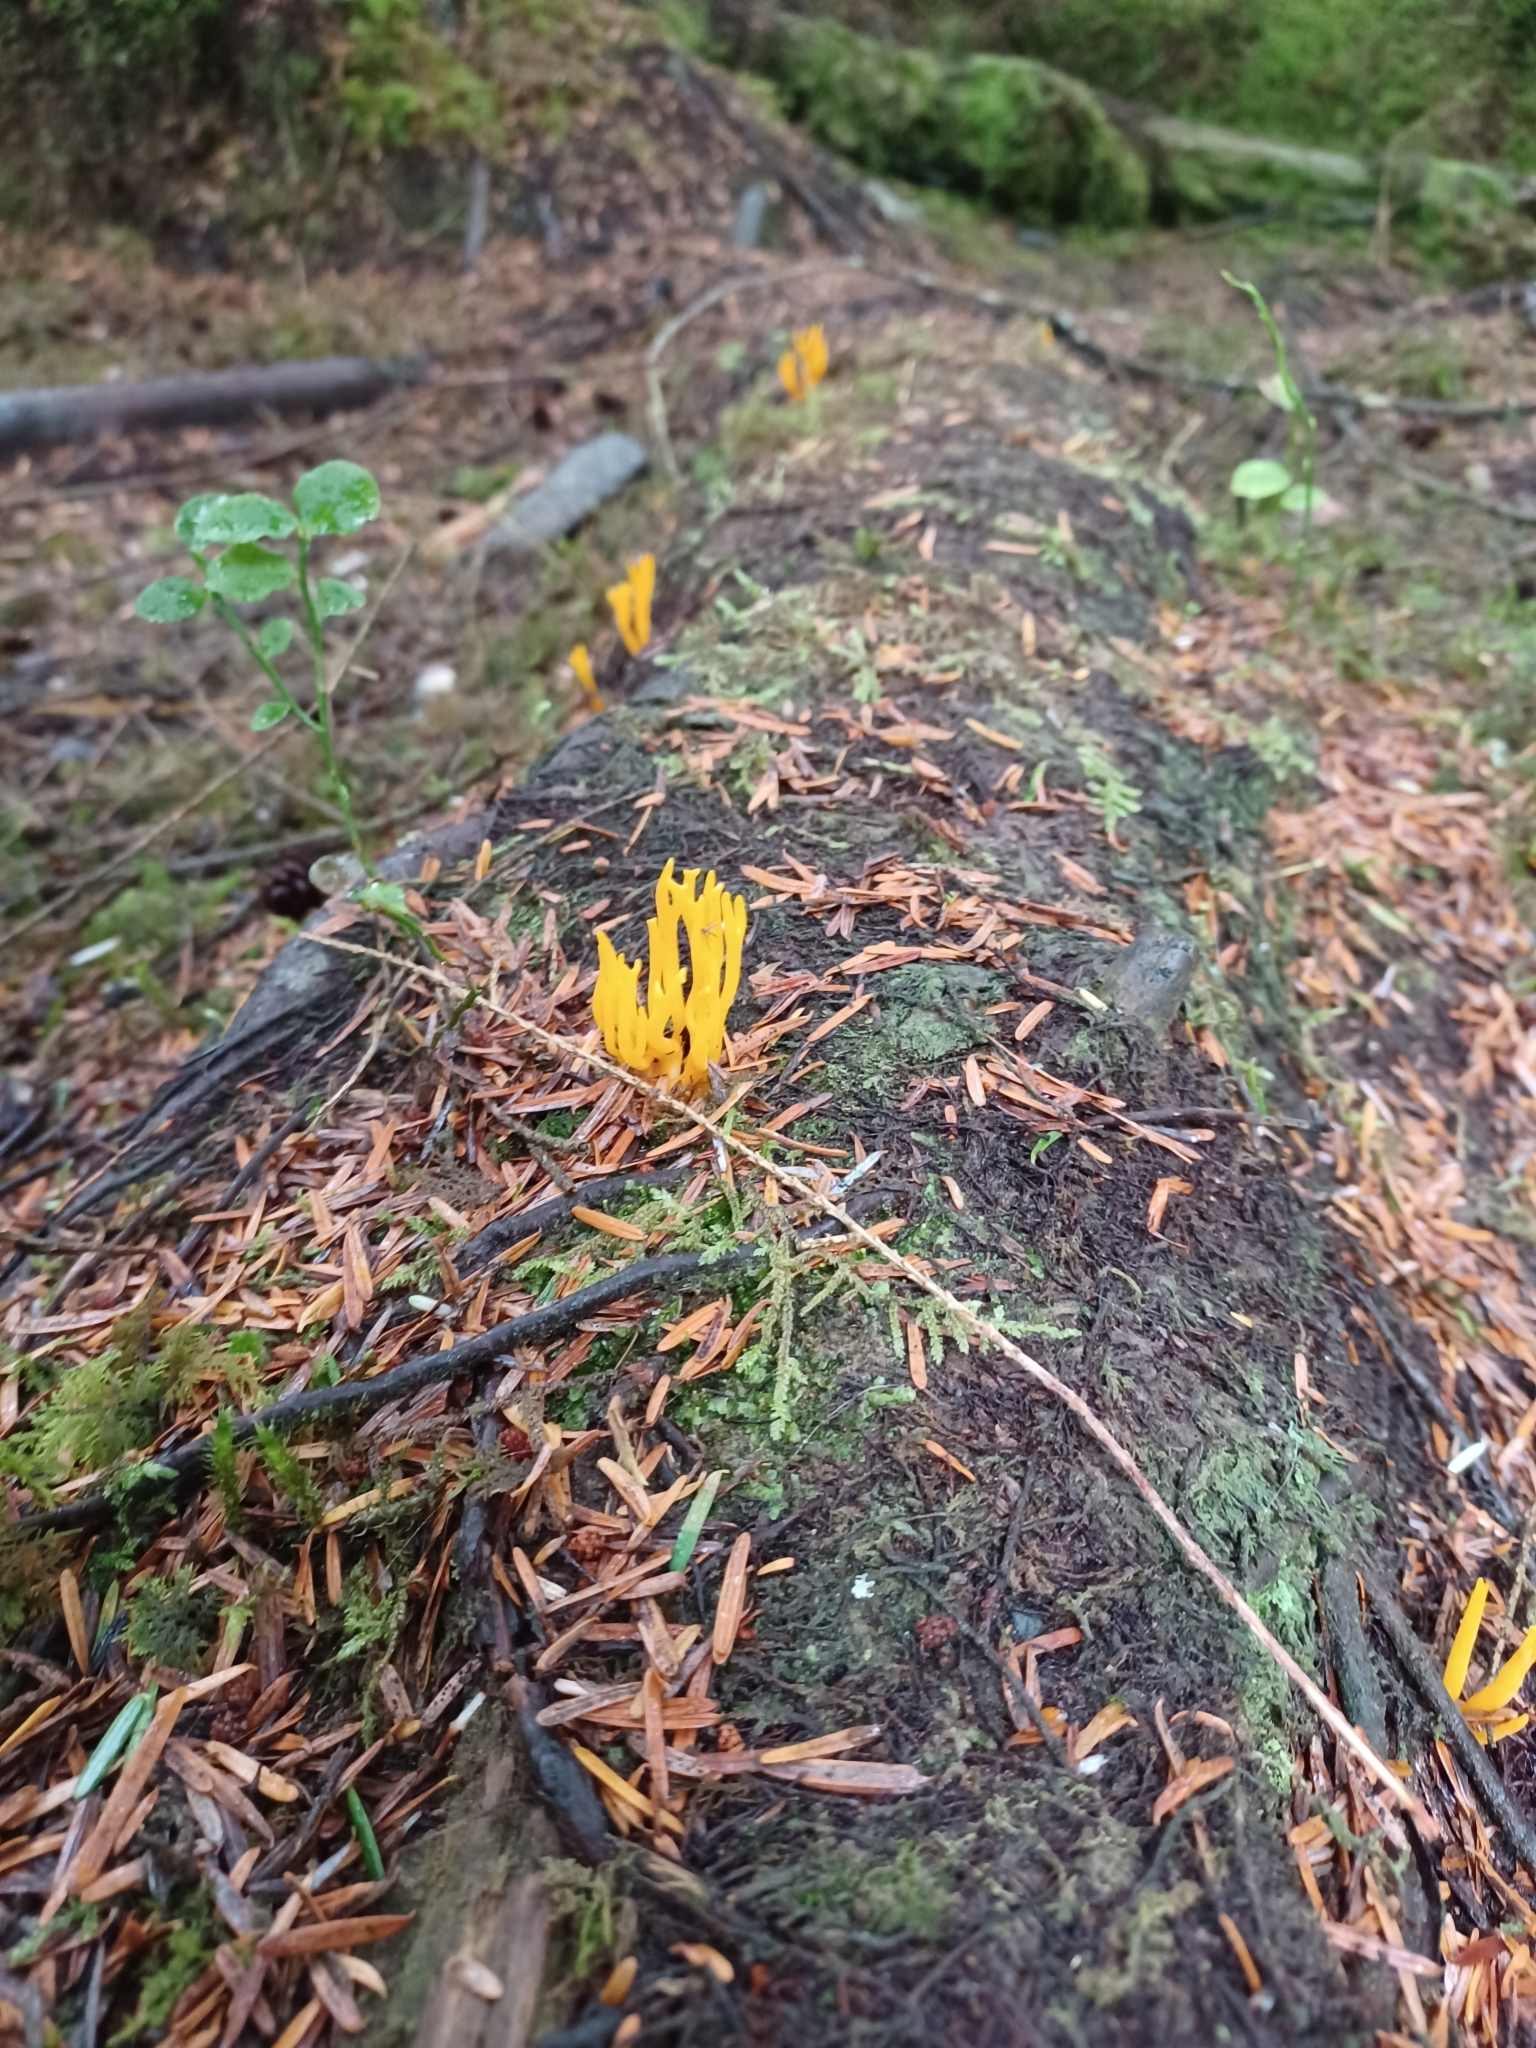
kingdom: Fungi
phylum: Basidiomycota
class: Dacrymycetes
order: Dacrymycetales
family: Dacrymycetaceae
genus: Calocera
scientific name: Calocera viscosa
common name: Yellow stagshorn
